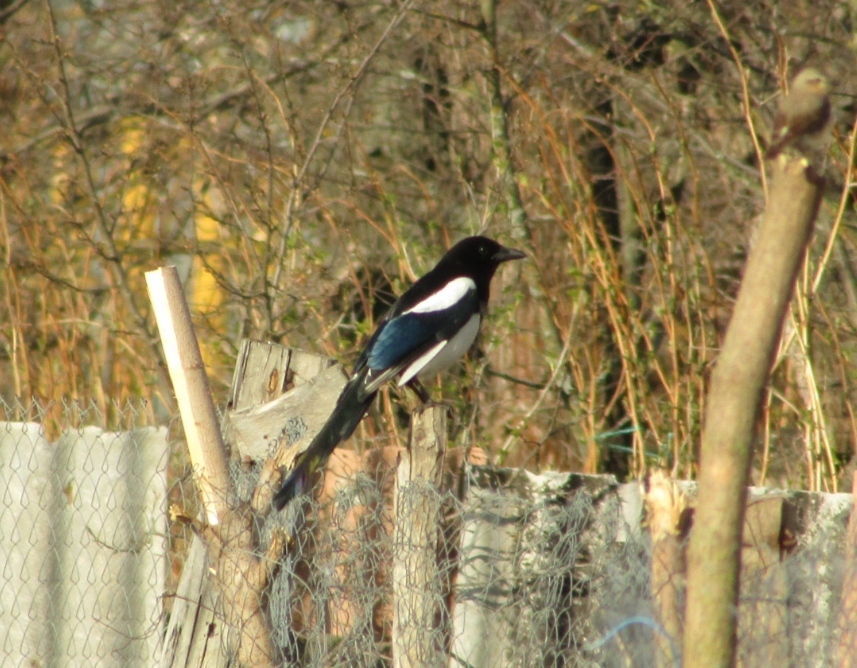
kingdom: Animalia
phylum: Chordata
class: Aves
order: Passeriformes
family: Corvidae
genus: Pica
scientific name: Pica pica
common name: Eurasian magpie
